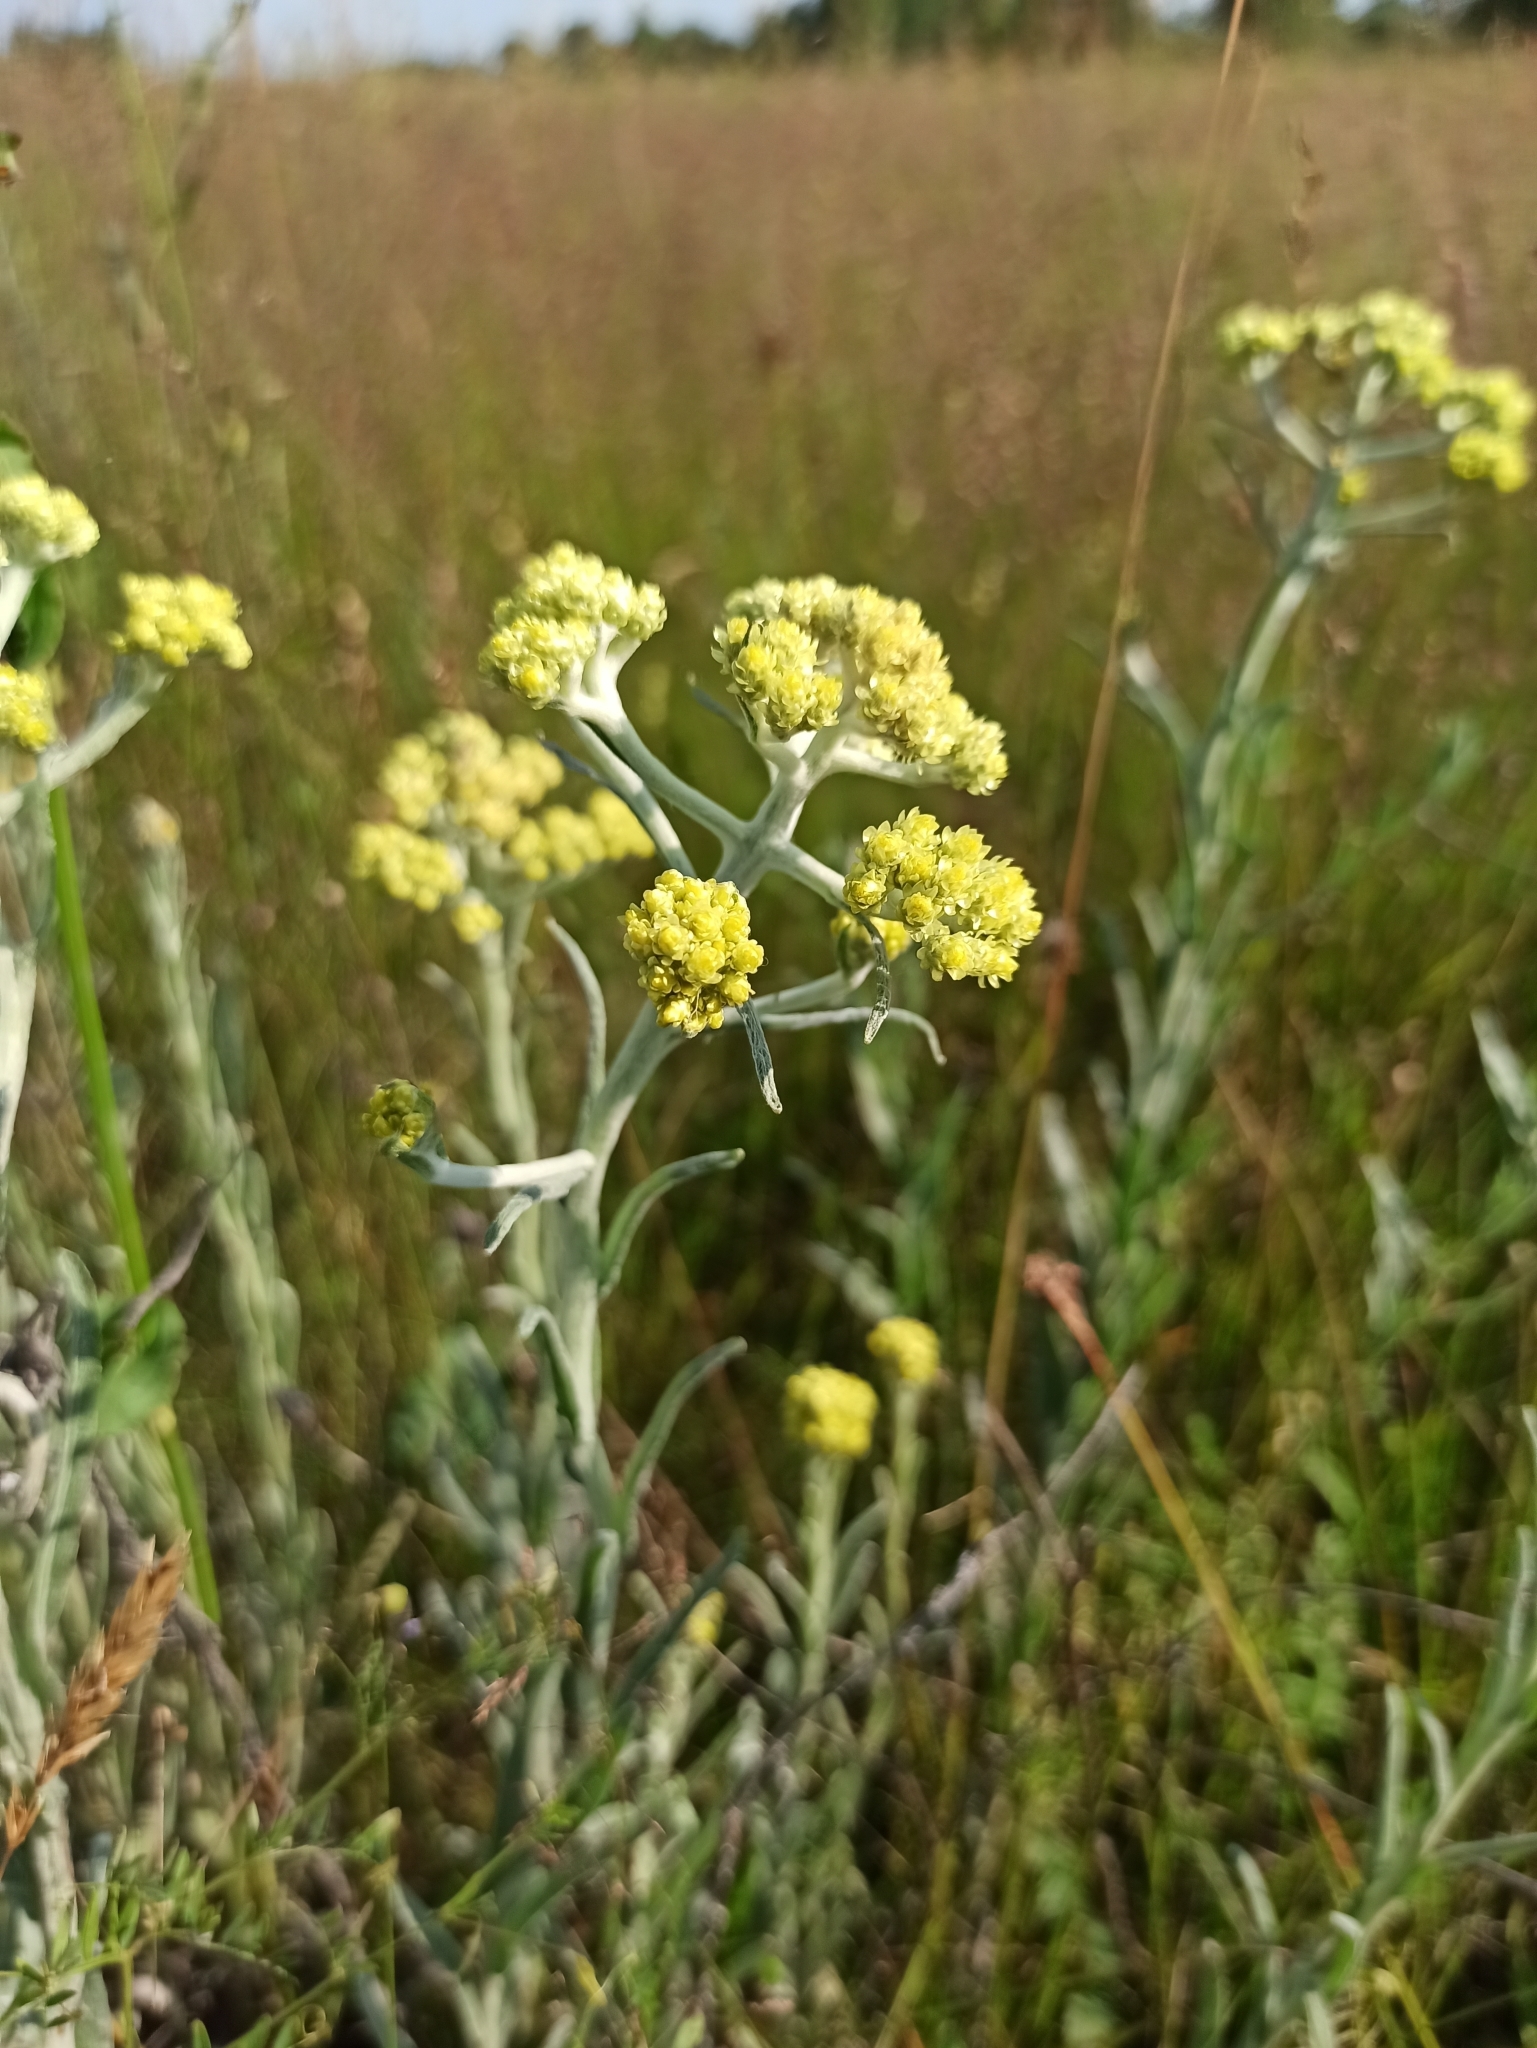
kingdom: Plantae
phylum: Tracheophyta
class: Magnoliopsida
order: Asterales
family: Asteraceae
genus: Helichrysum
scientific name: Helichrysum arenarium
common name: Strawflower
